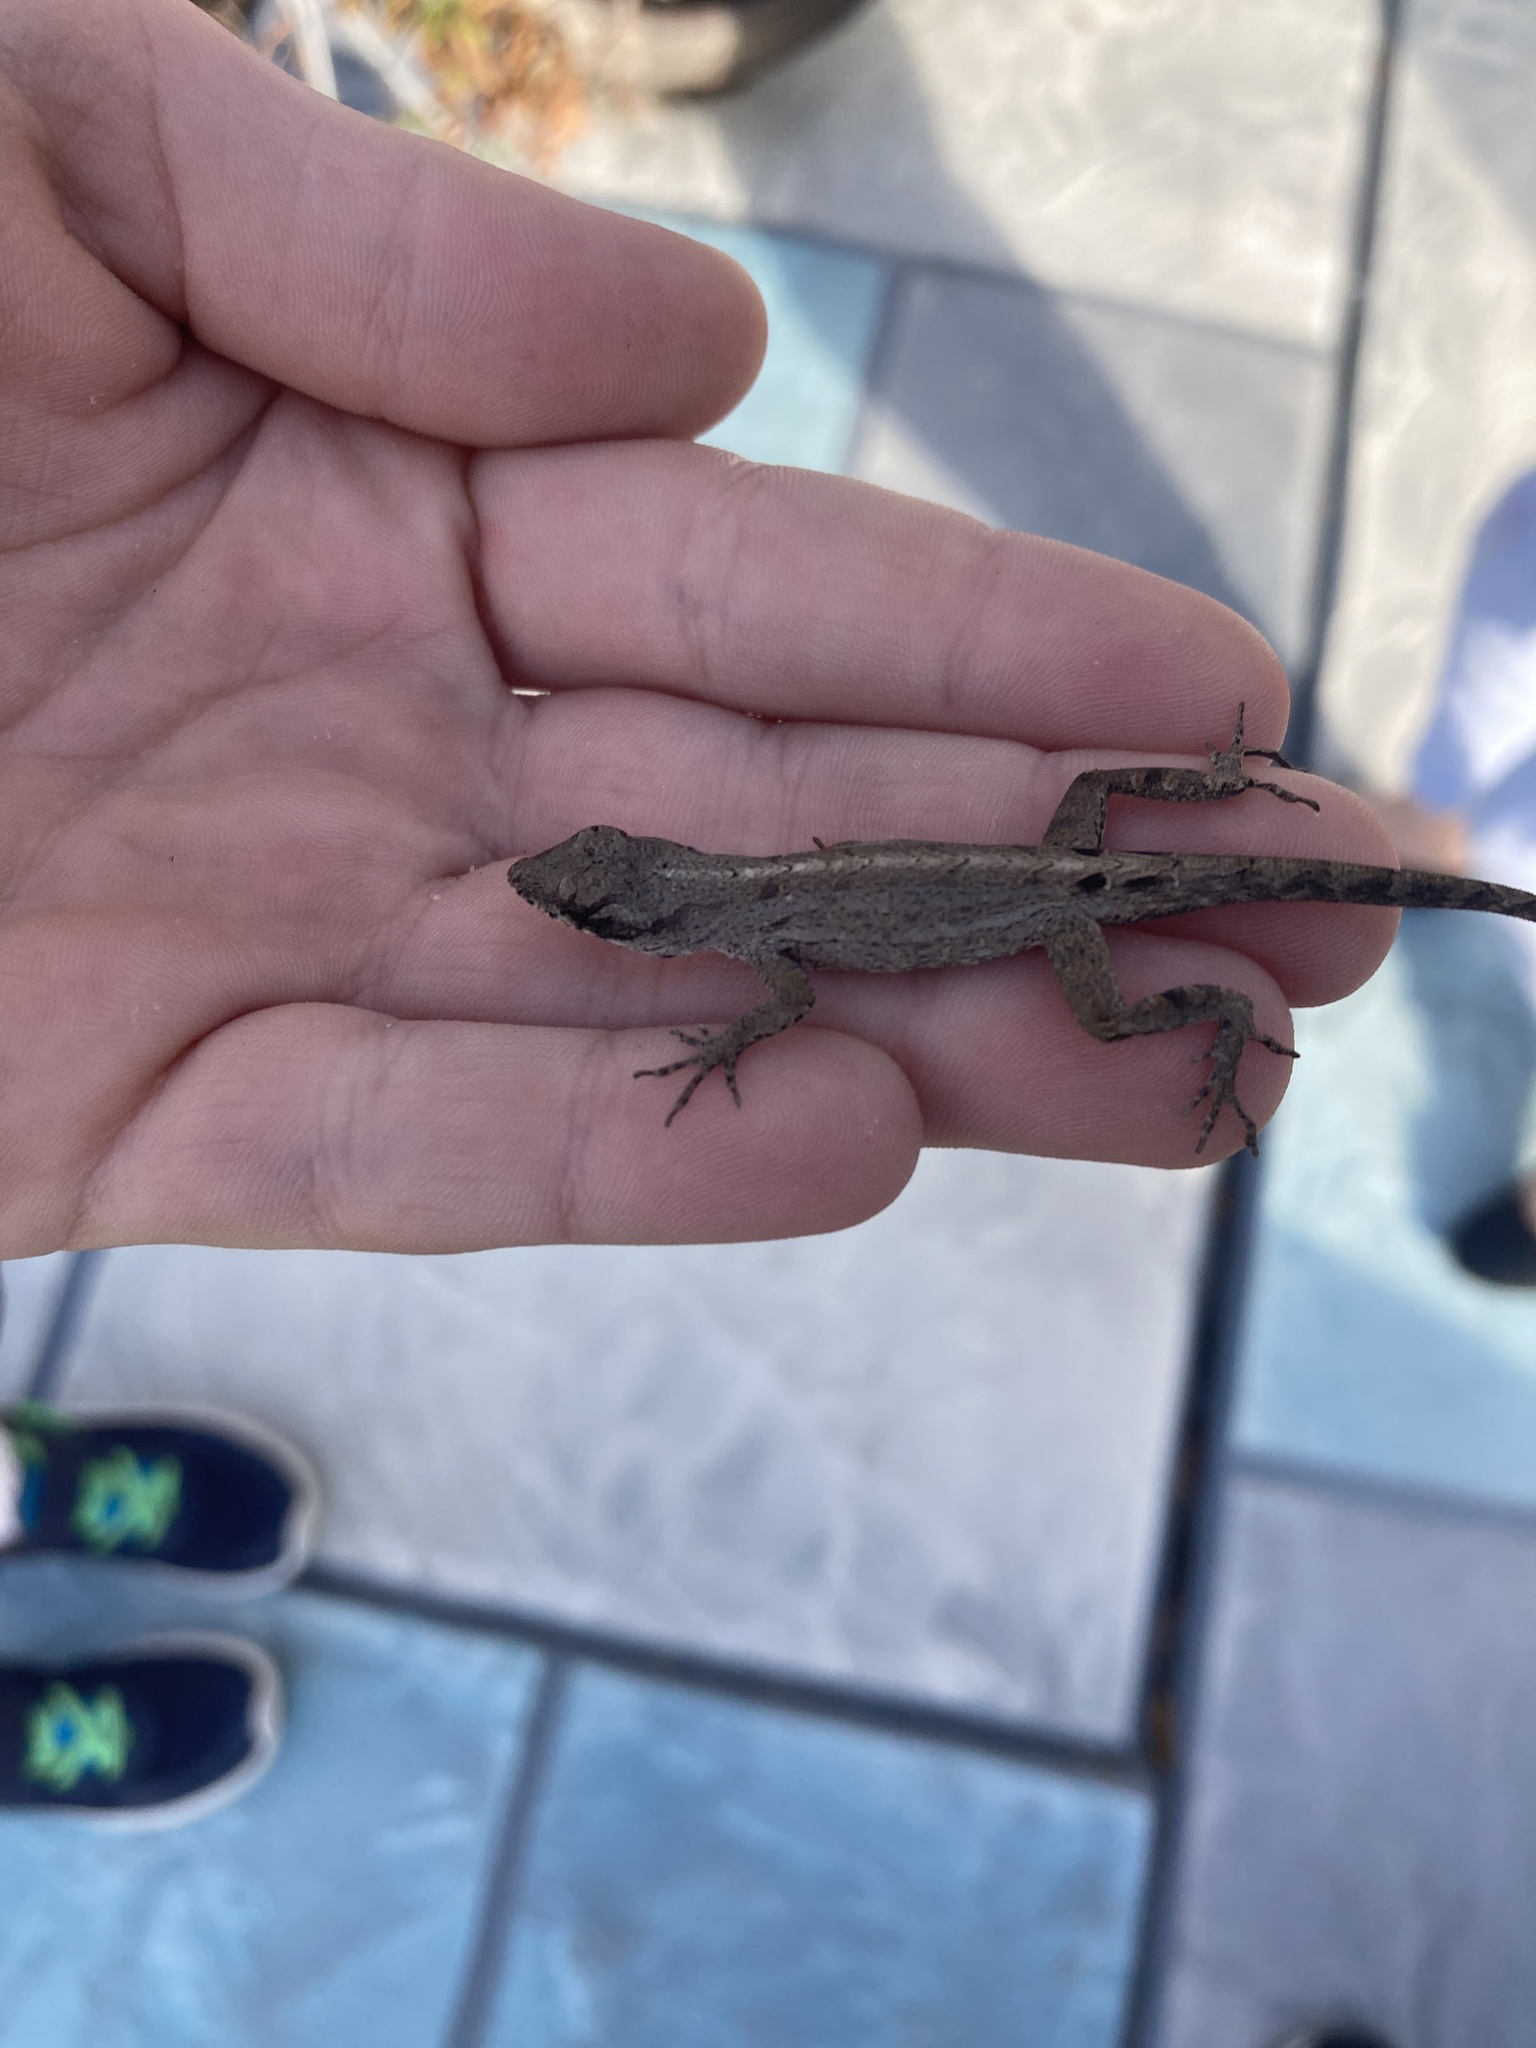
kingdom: Animalia
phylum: Chordata
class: Squamata
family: Dactyloidae
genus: Anolis
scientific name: Anolis sagrei
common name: Brown anole
